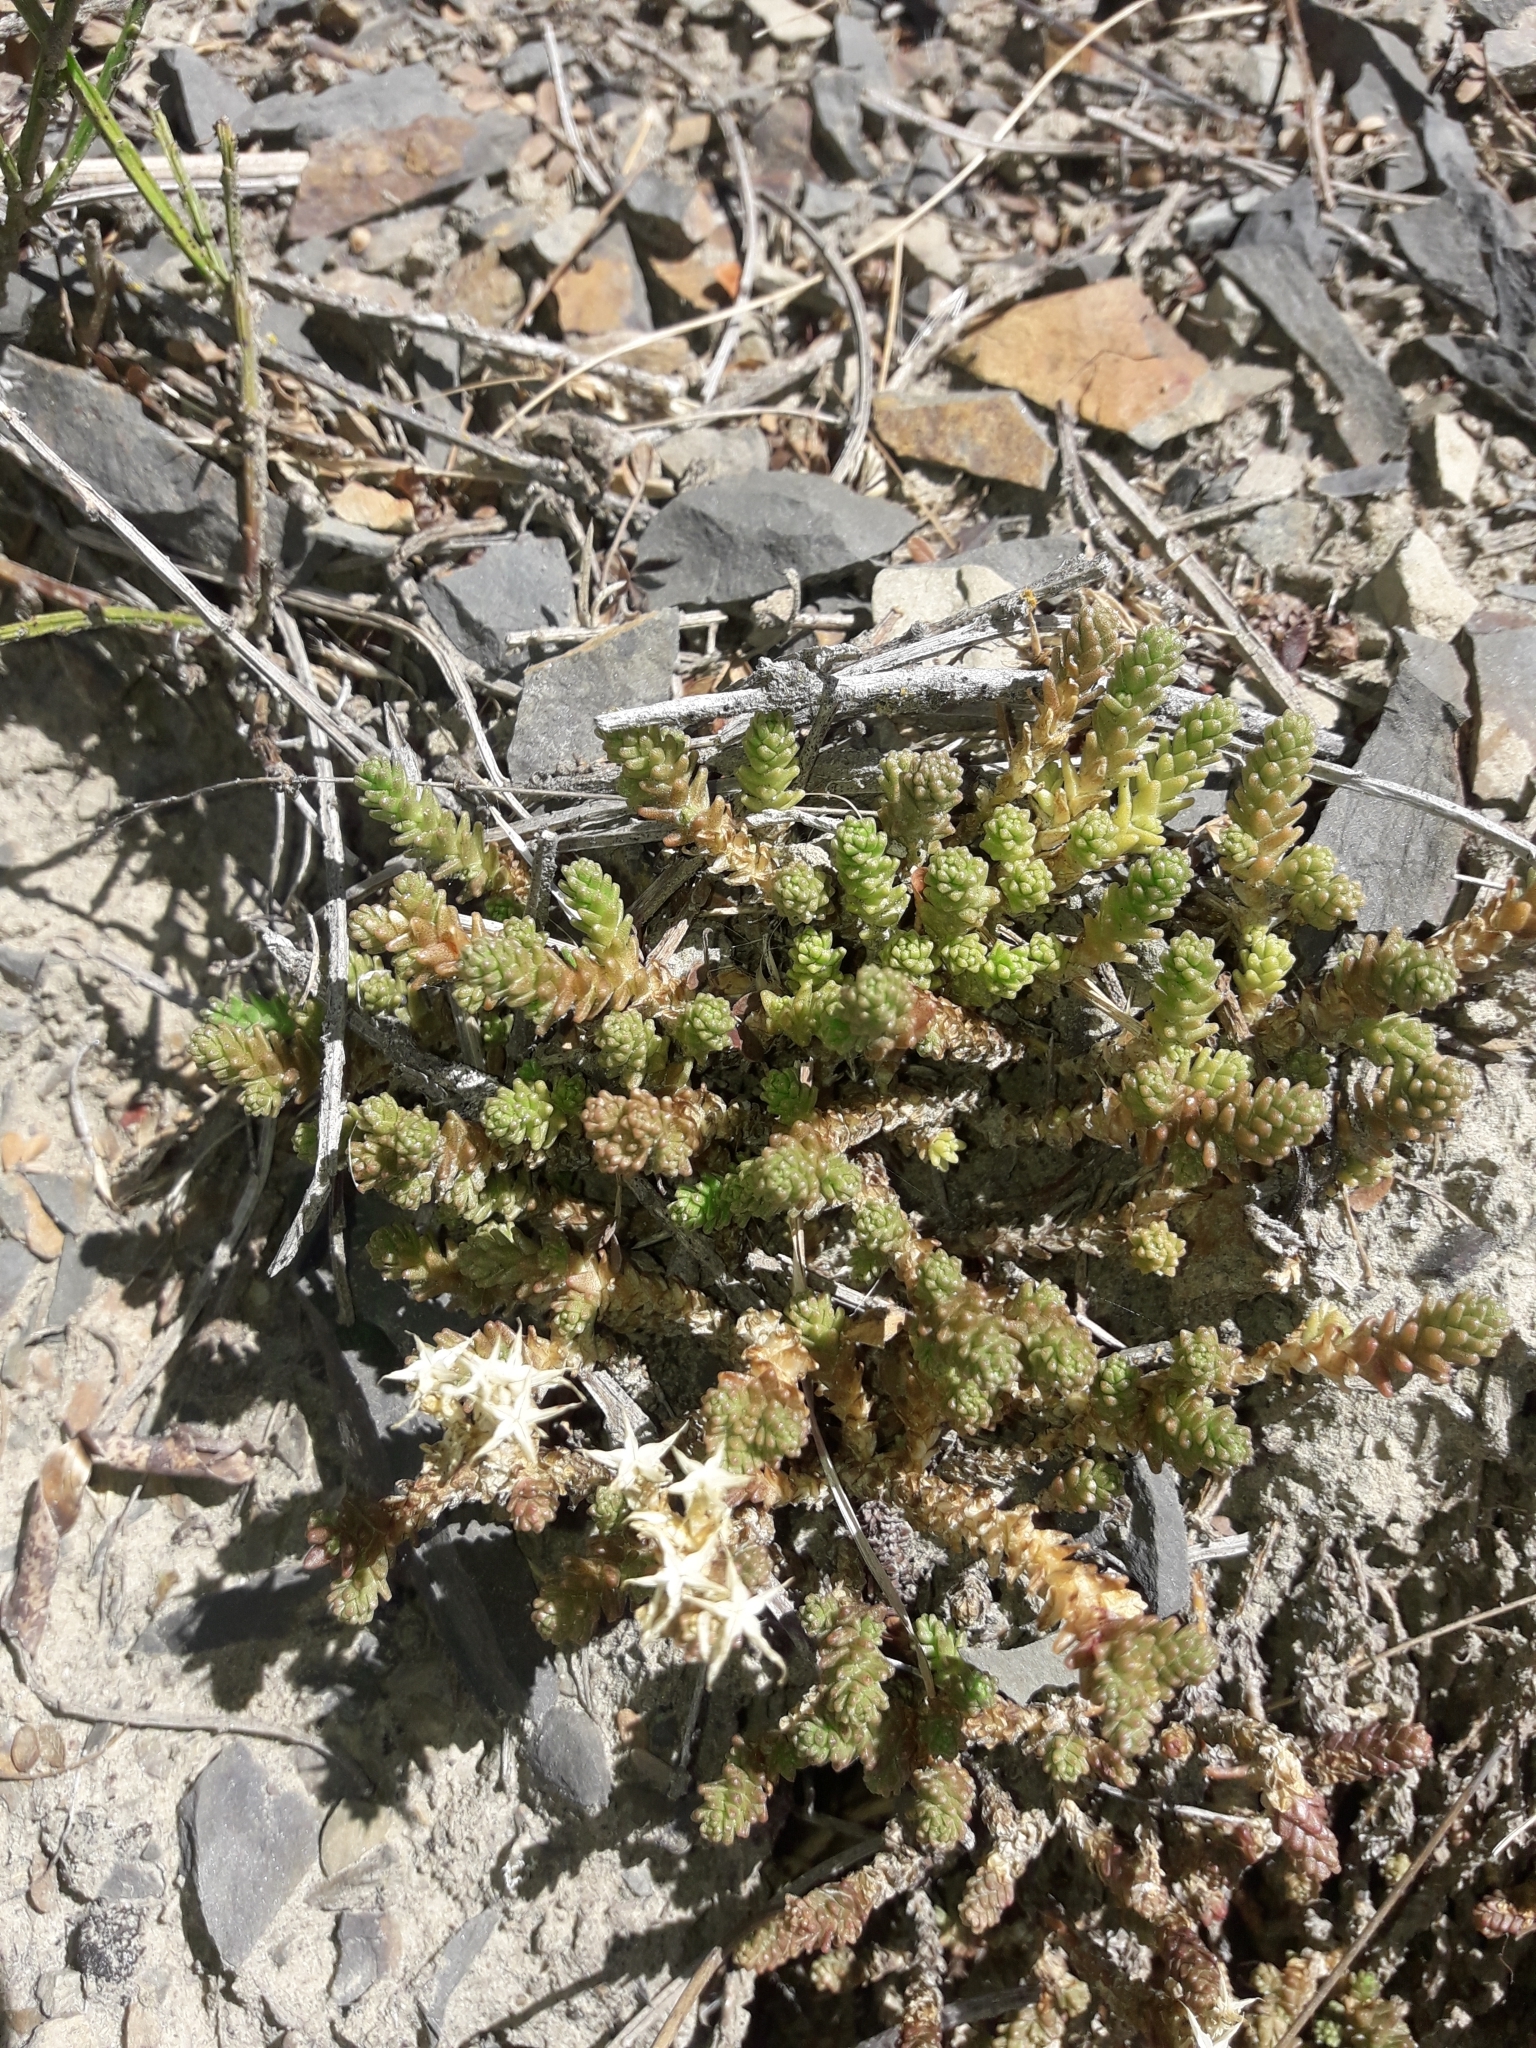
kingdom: Plantae
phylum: Tracheophyta
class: Magnoliopsida
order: Saxifragales
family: Crassulaceae
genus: Sedum
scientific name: Sedum acre
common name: Biting stonecrop
